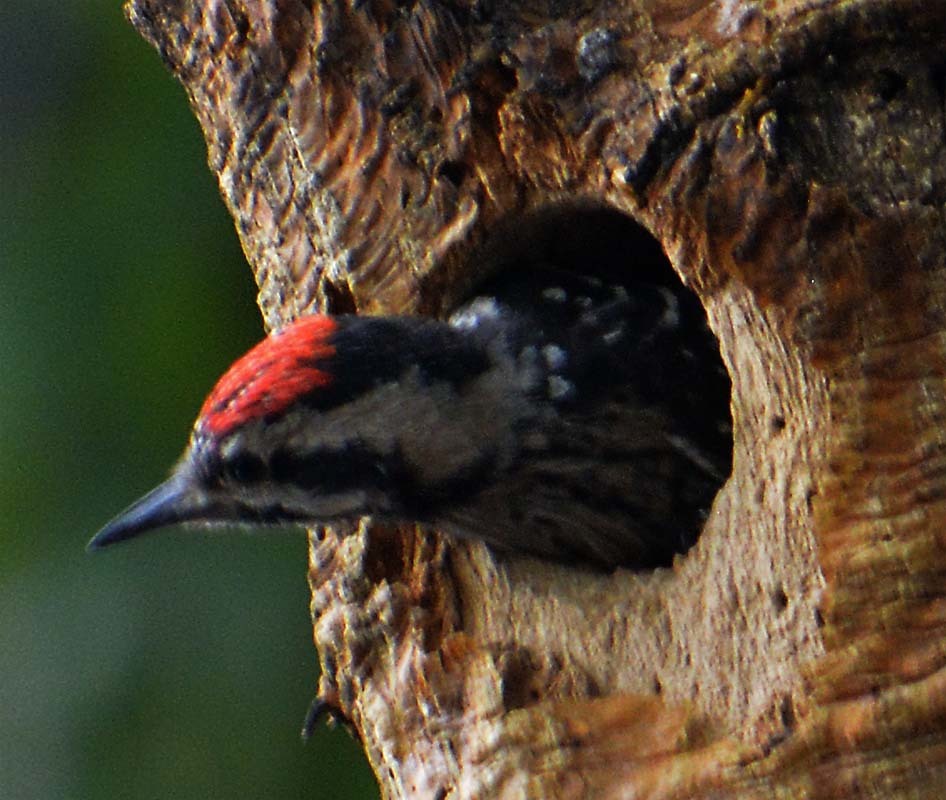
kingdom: Animalia
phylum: Chordata
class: Aves
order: Piciformes
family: Picidae
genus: Dryobates
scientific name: Dryobates scalaris
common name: Ladder-backed woodpecker
